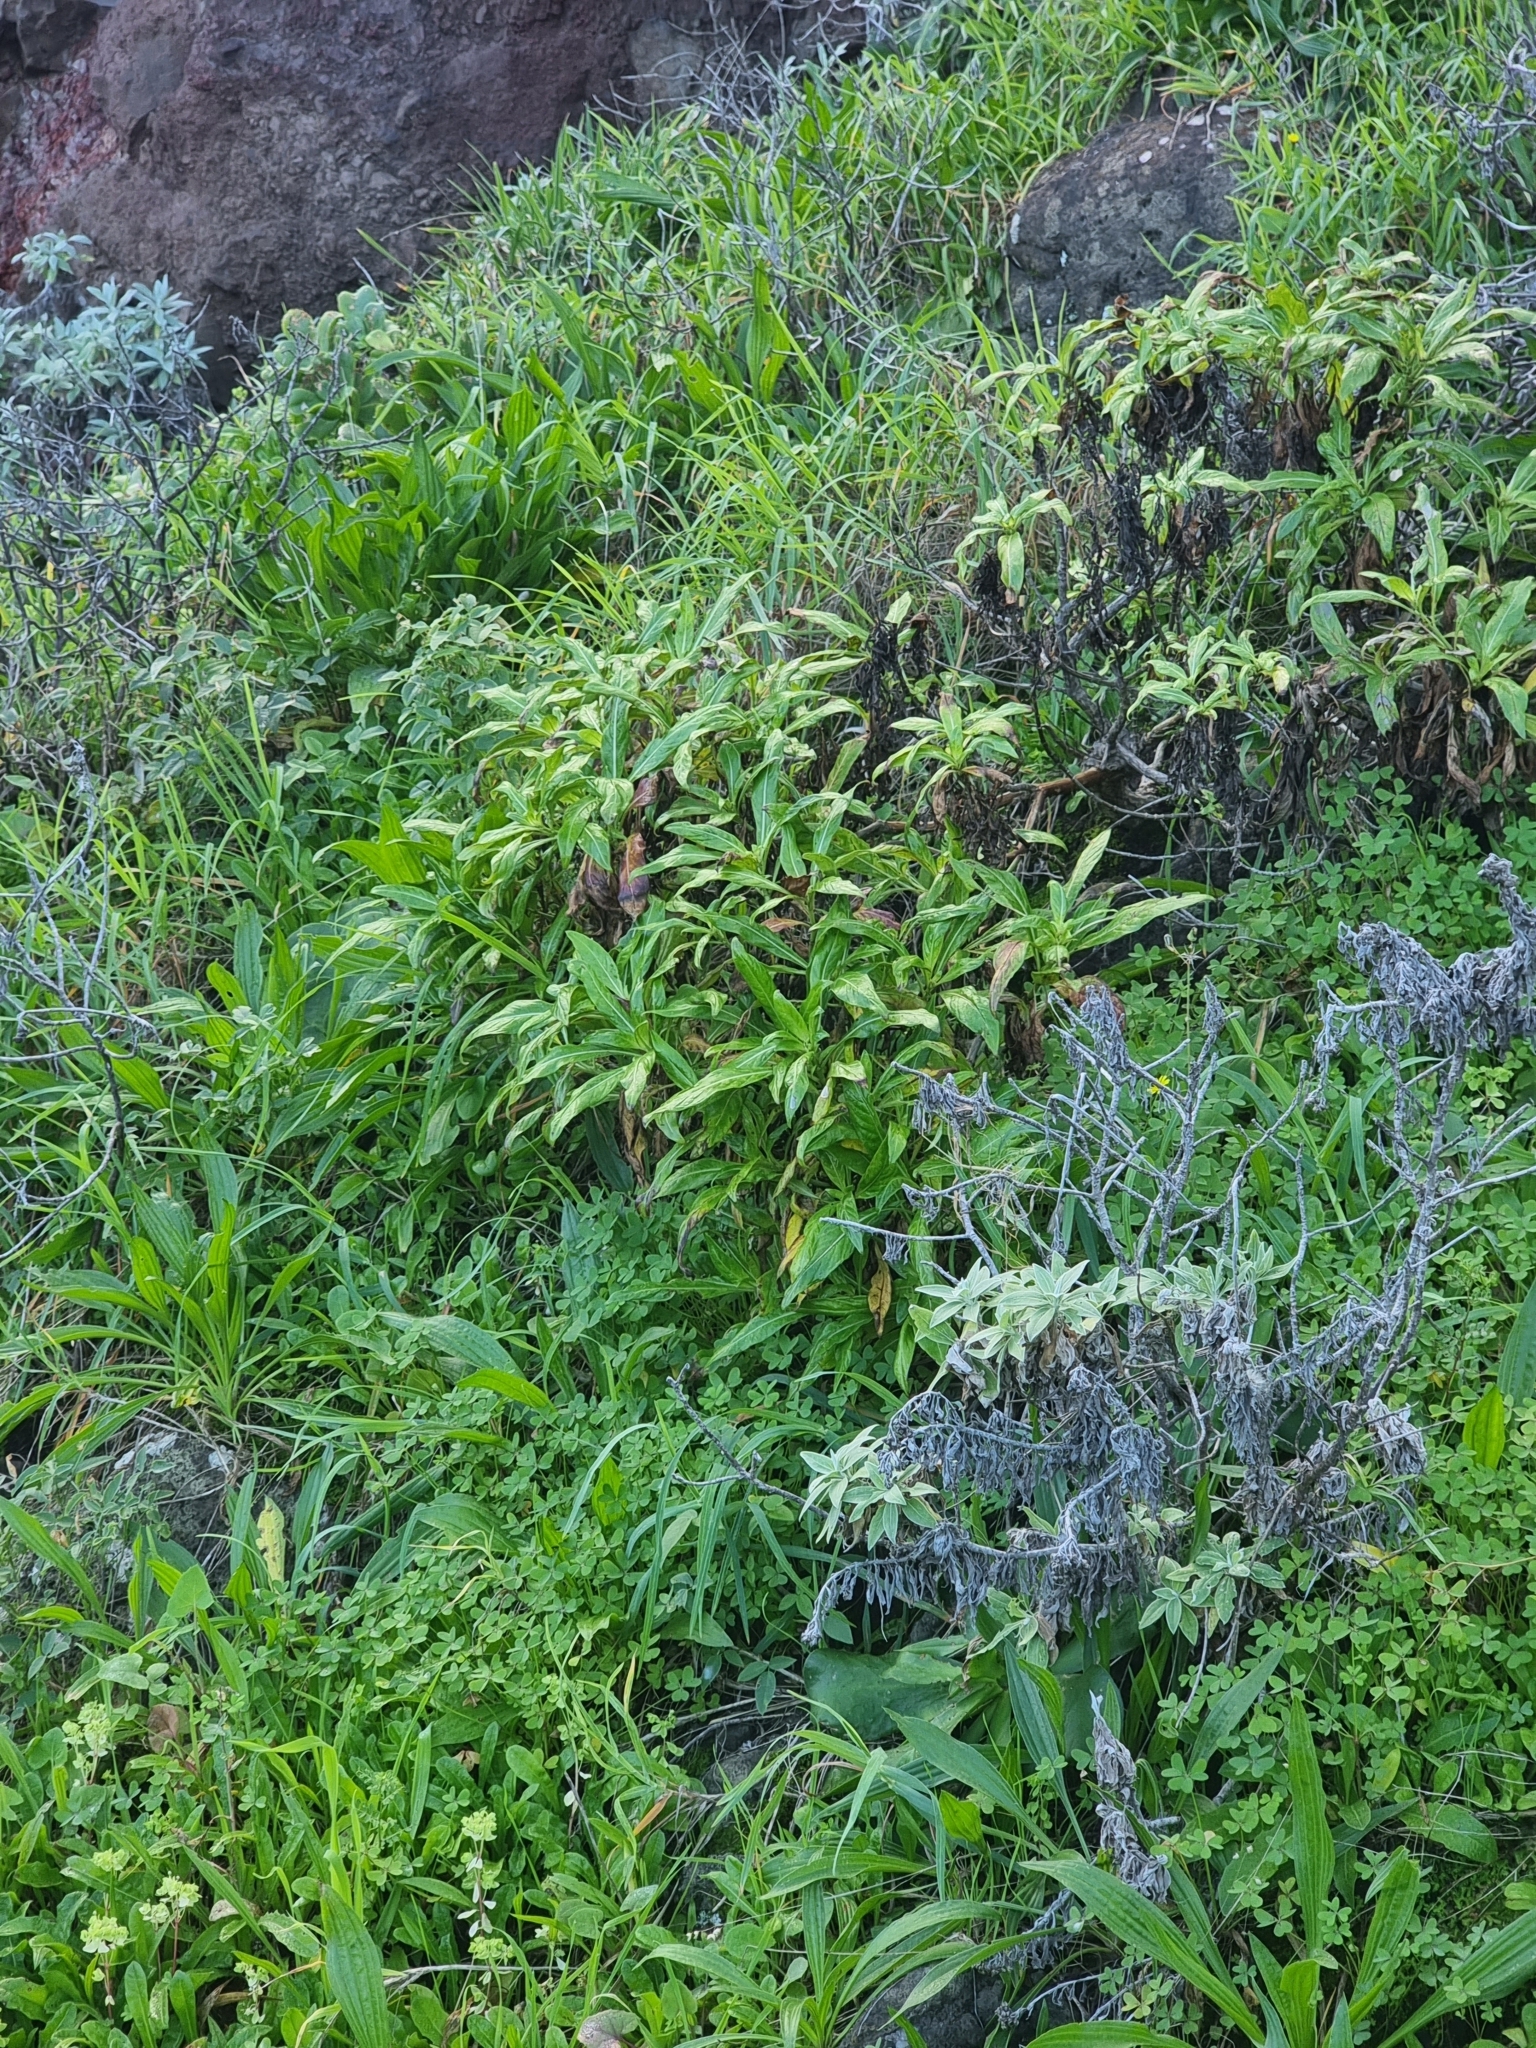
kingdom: Plantae
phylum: Tracheophyta
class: Magnoliopsida
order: Gentianales
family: Rubiaceae
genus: Phyllis
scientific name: Phyllis nobla
